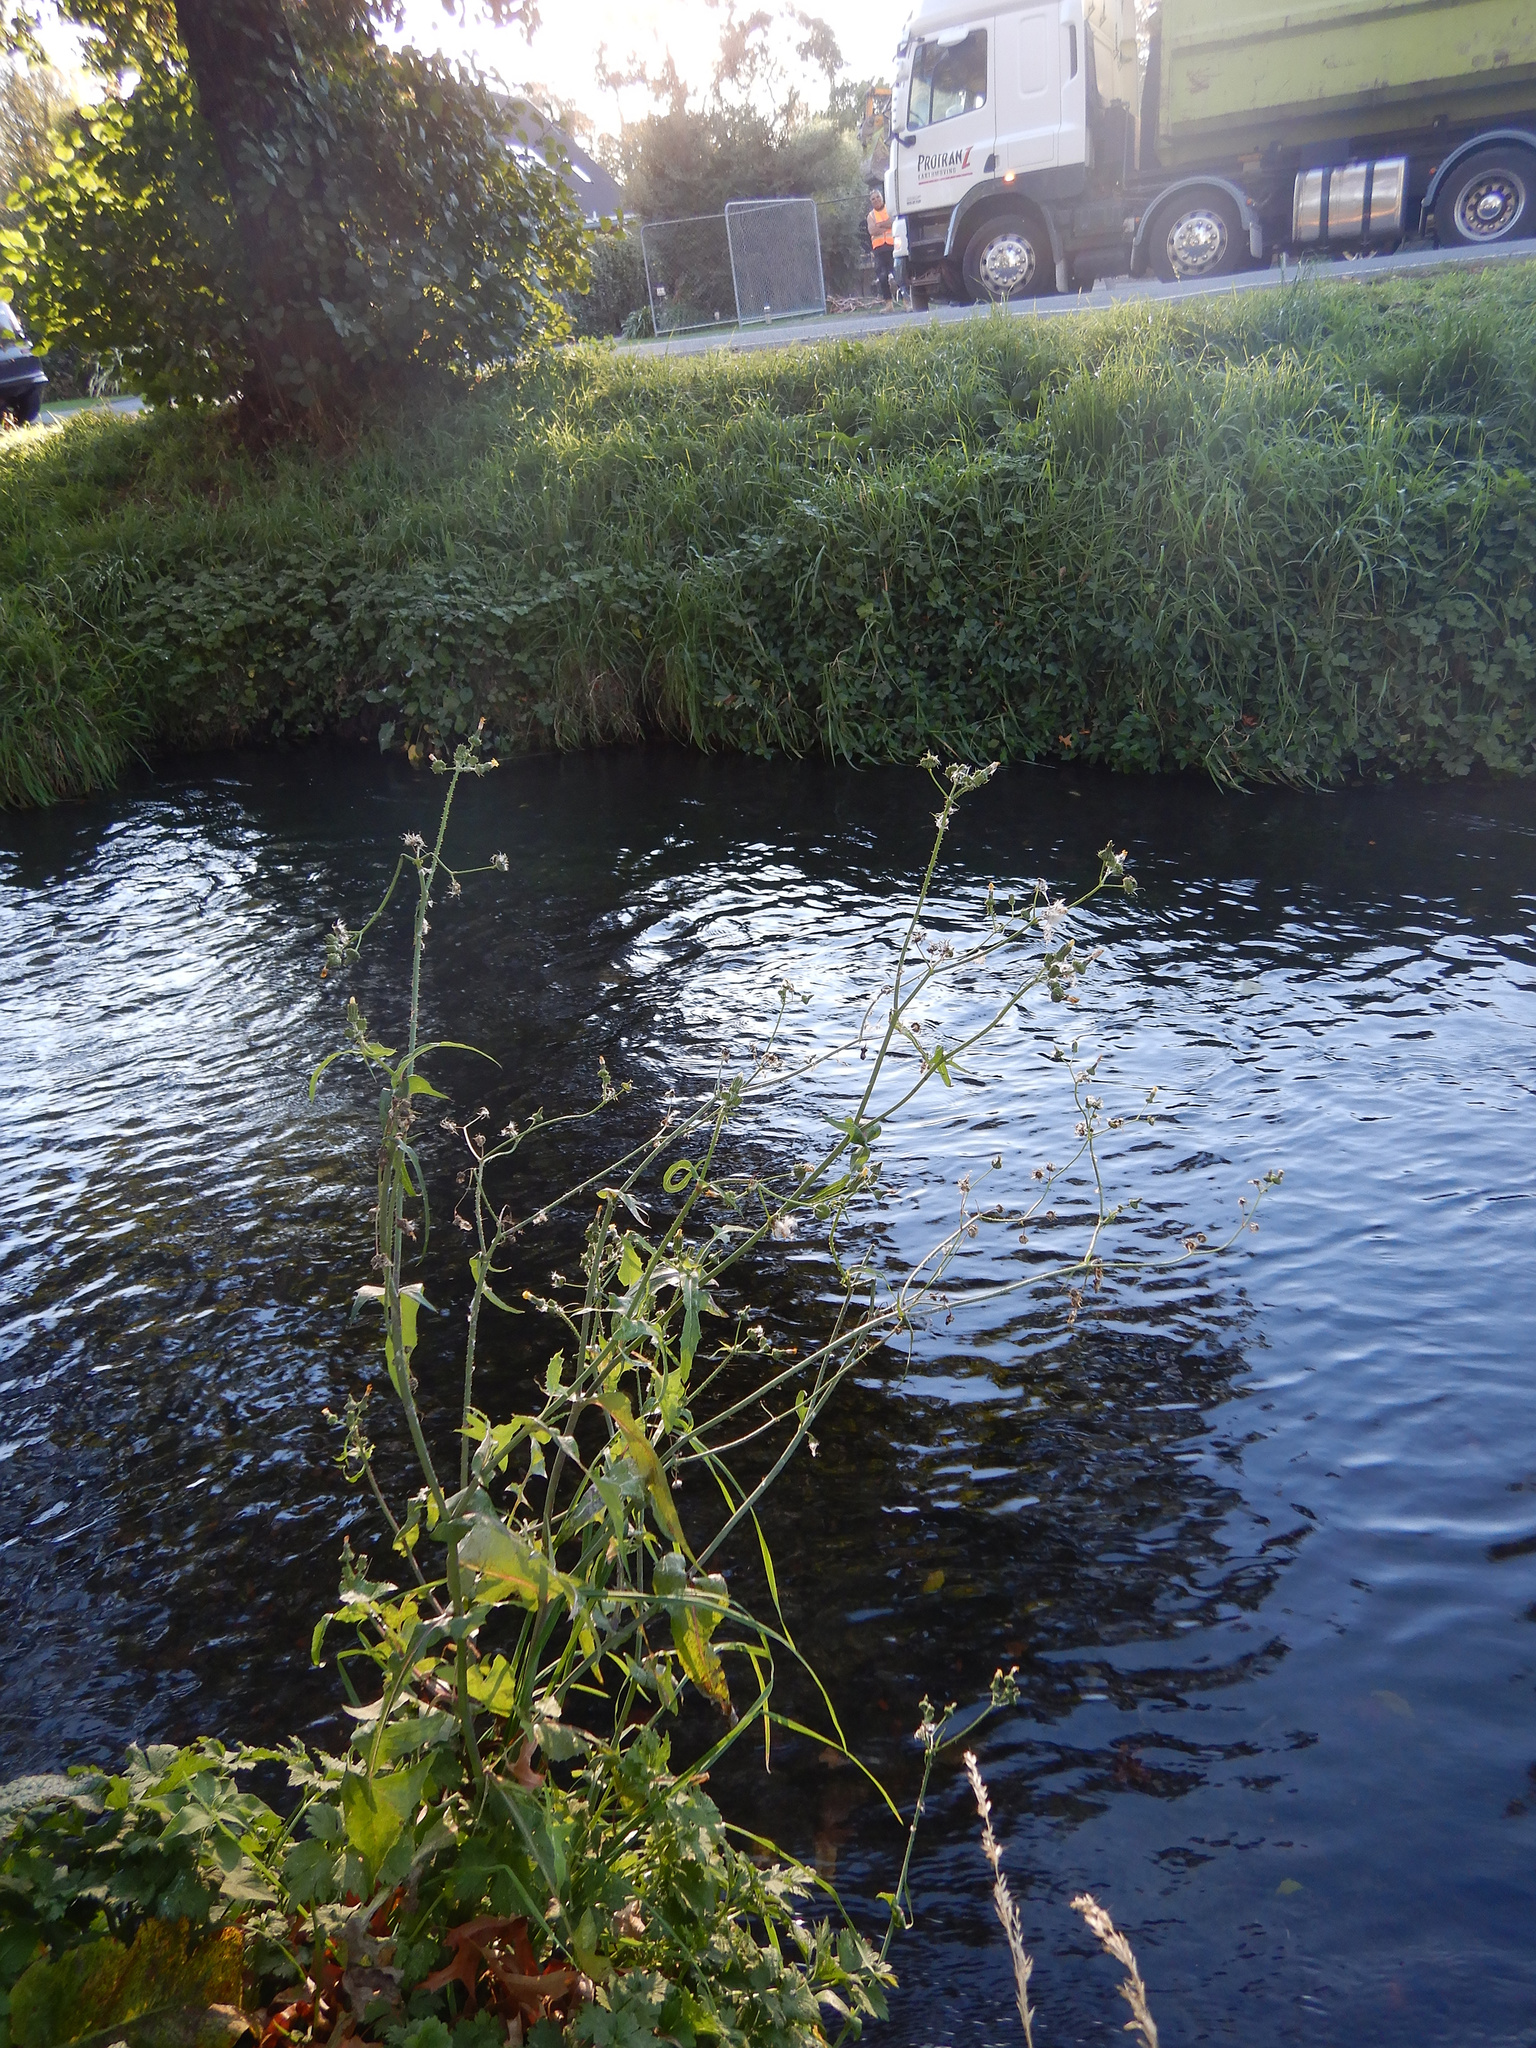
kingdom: Plantae
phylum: Tracheophyta
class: Magnoliopsida
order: Asterales
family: Asteraceae
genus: Sonchus
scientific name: Sonchus oleraceus
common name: Common sowthistle
